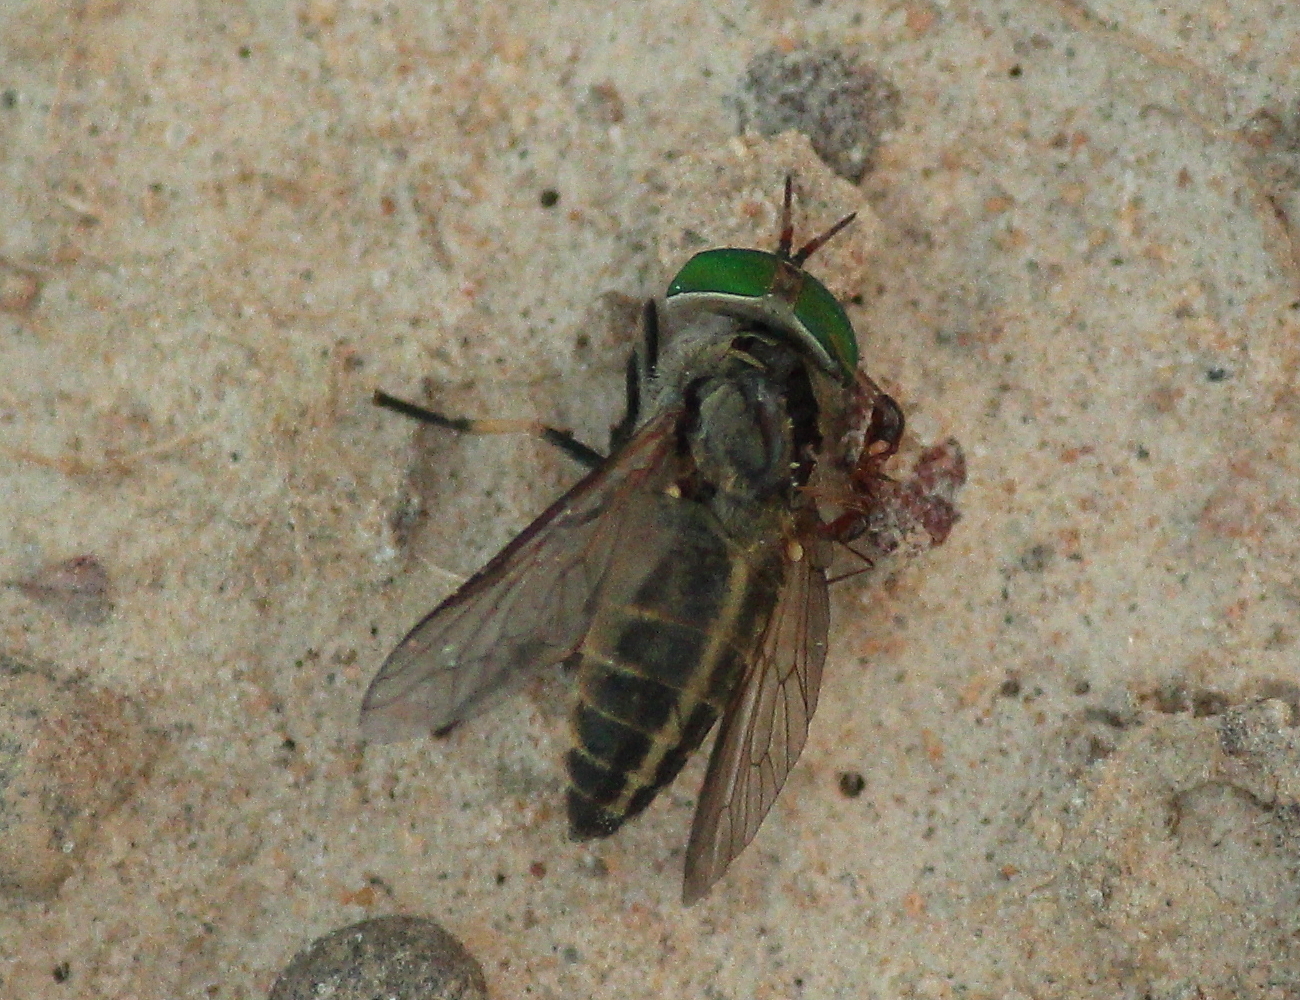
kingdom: Animalia
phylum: Arthropoda
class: Insecta
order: Diptera
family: Tabanidae
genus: Tabanus
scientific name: Tabanus mularis
